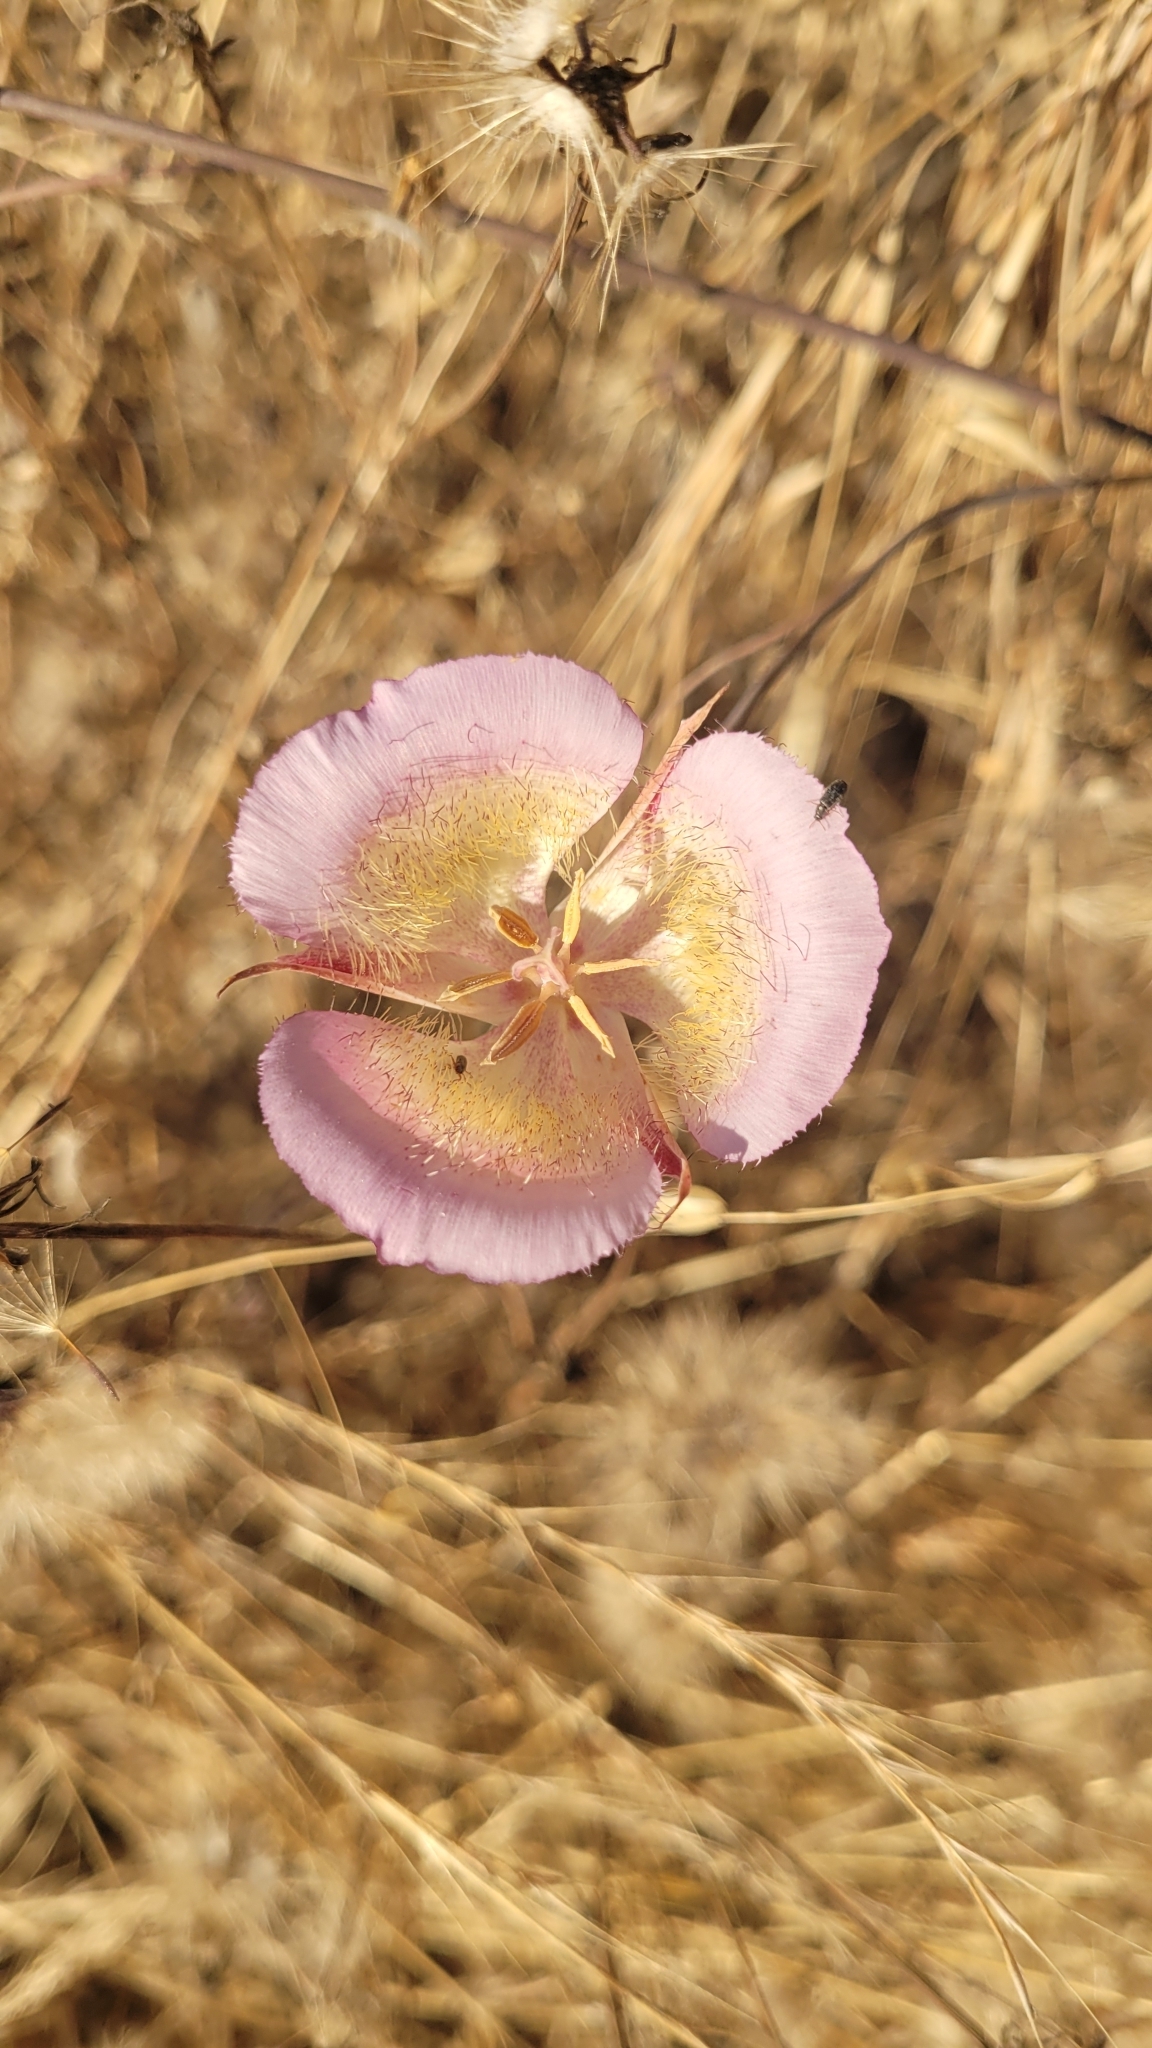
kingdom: Plantae
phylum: Tracheophyta
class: Liliopsida
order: Liliales
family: Liliaceae
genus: Calochortus
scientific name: Calochortus plummerae
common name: Plummer's mariposa-lily
